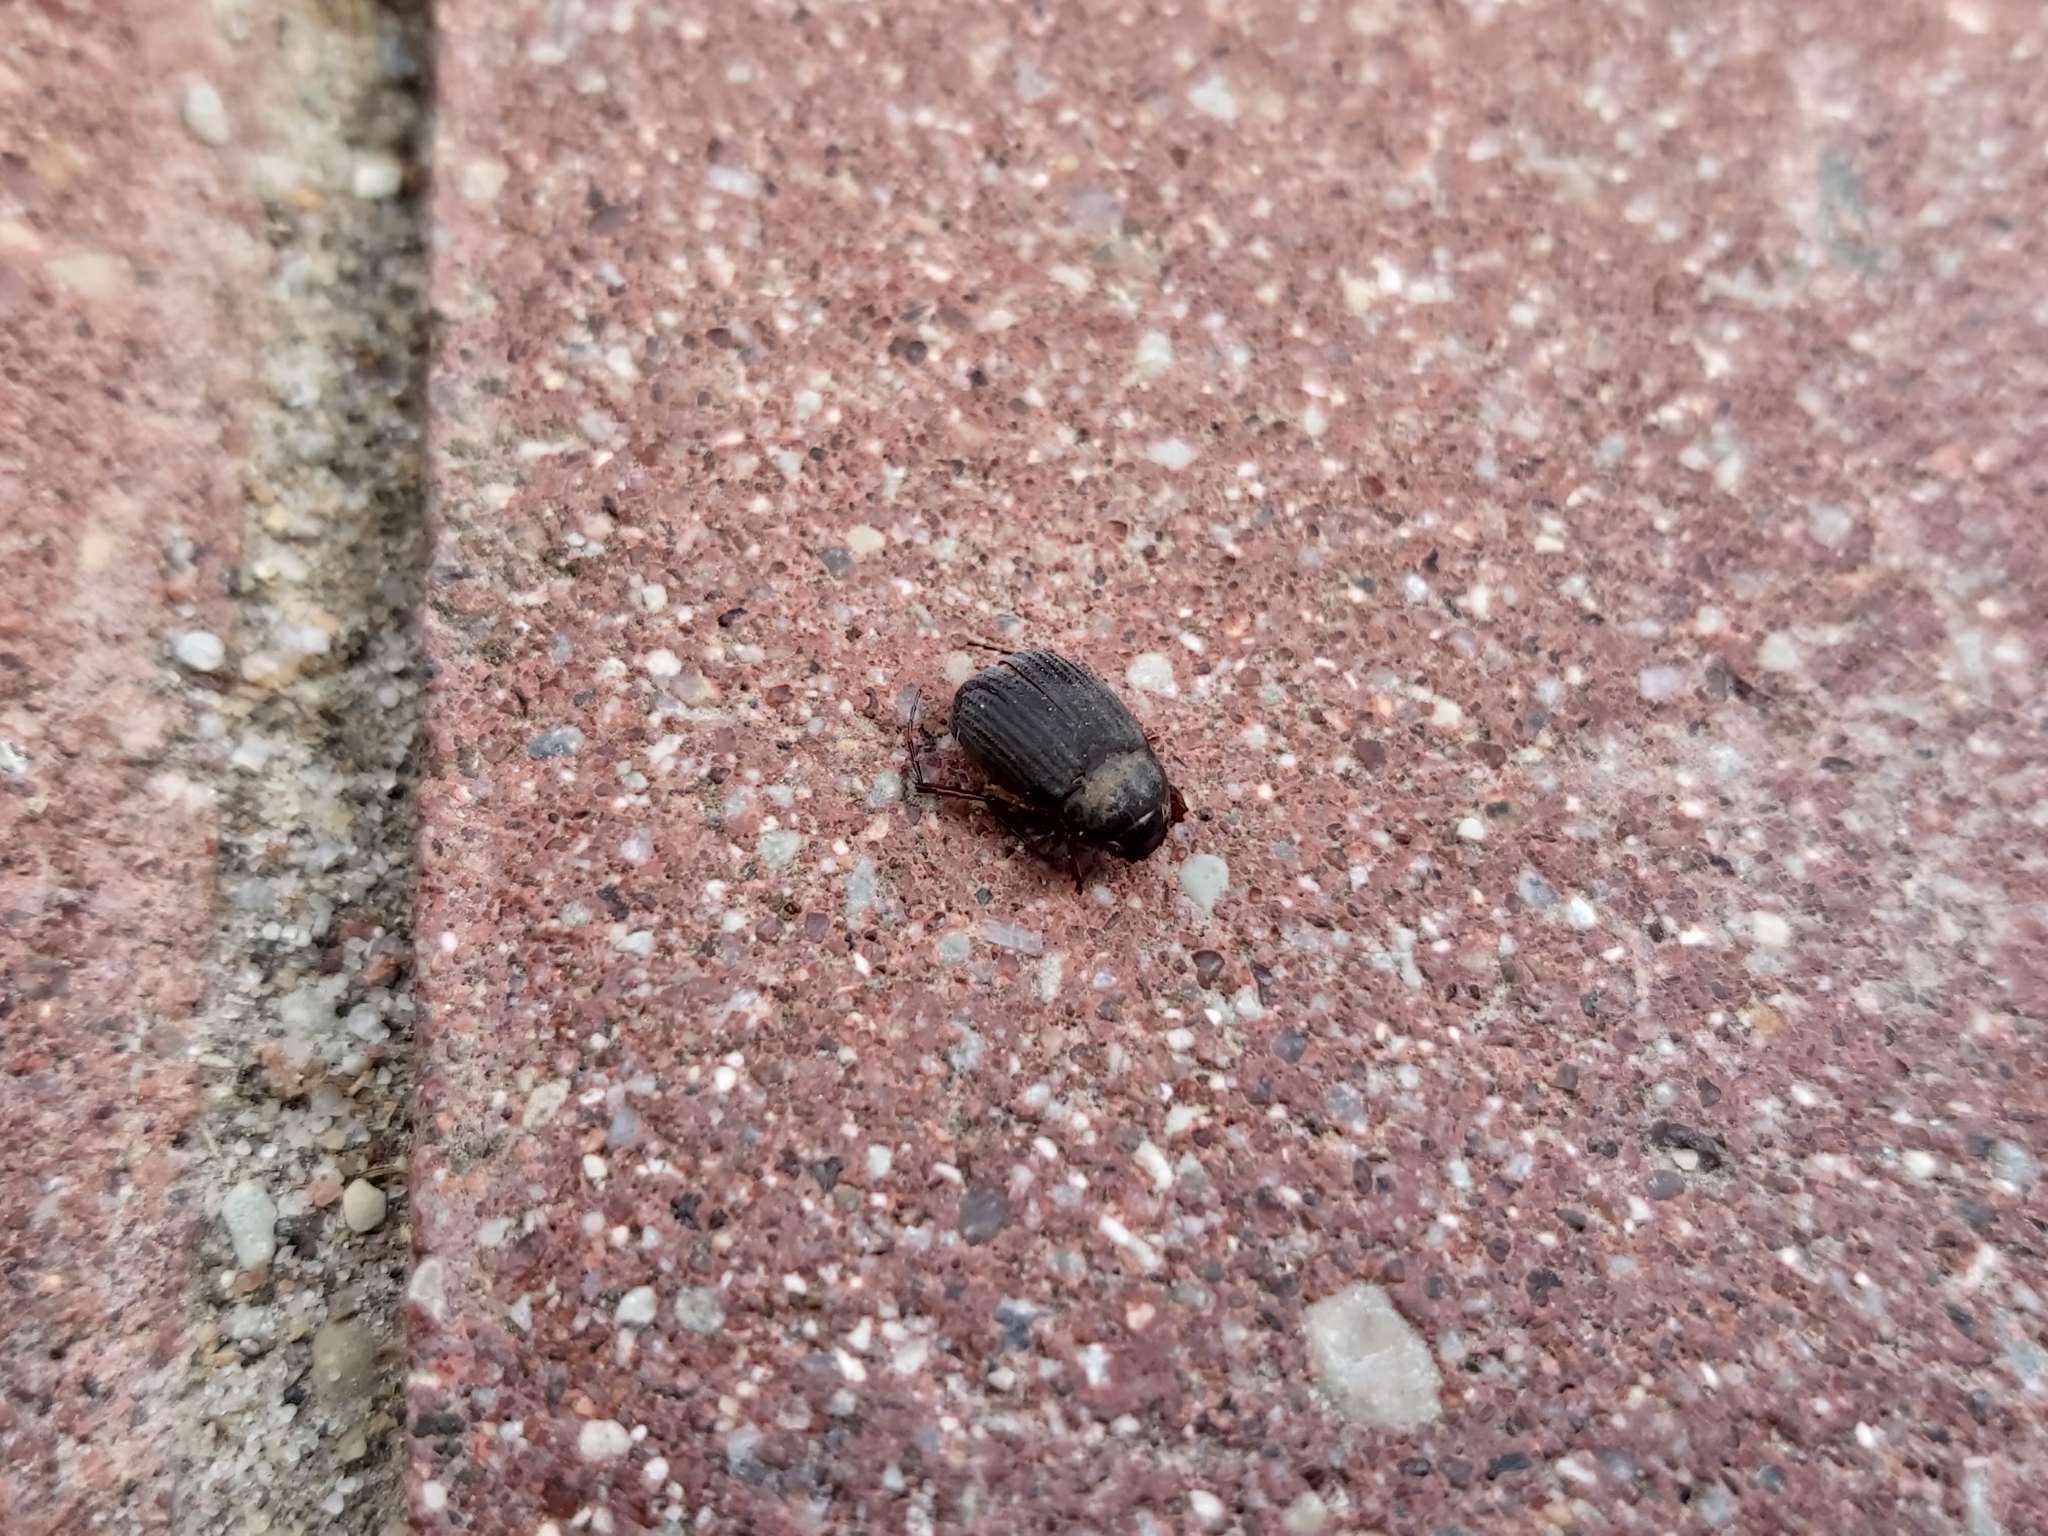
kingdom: Animalia
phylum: Arthropoda
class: Insecta
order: Coleoptera
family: Scarabaeidae
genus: Maladera
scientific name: Maladera holosericea
